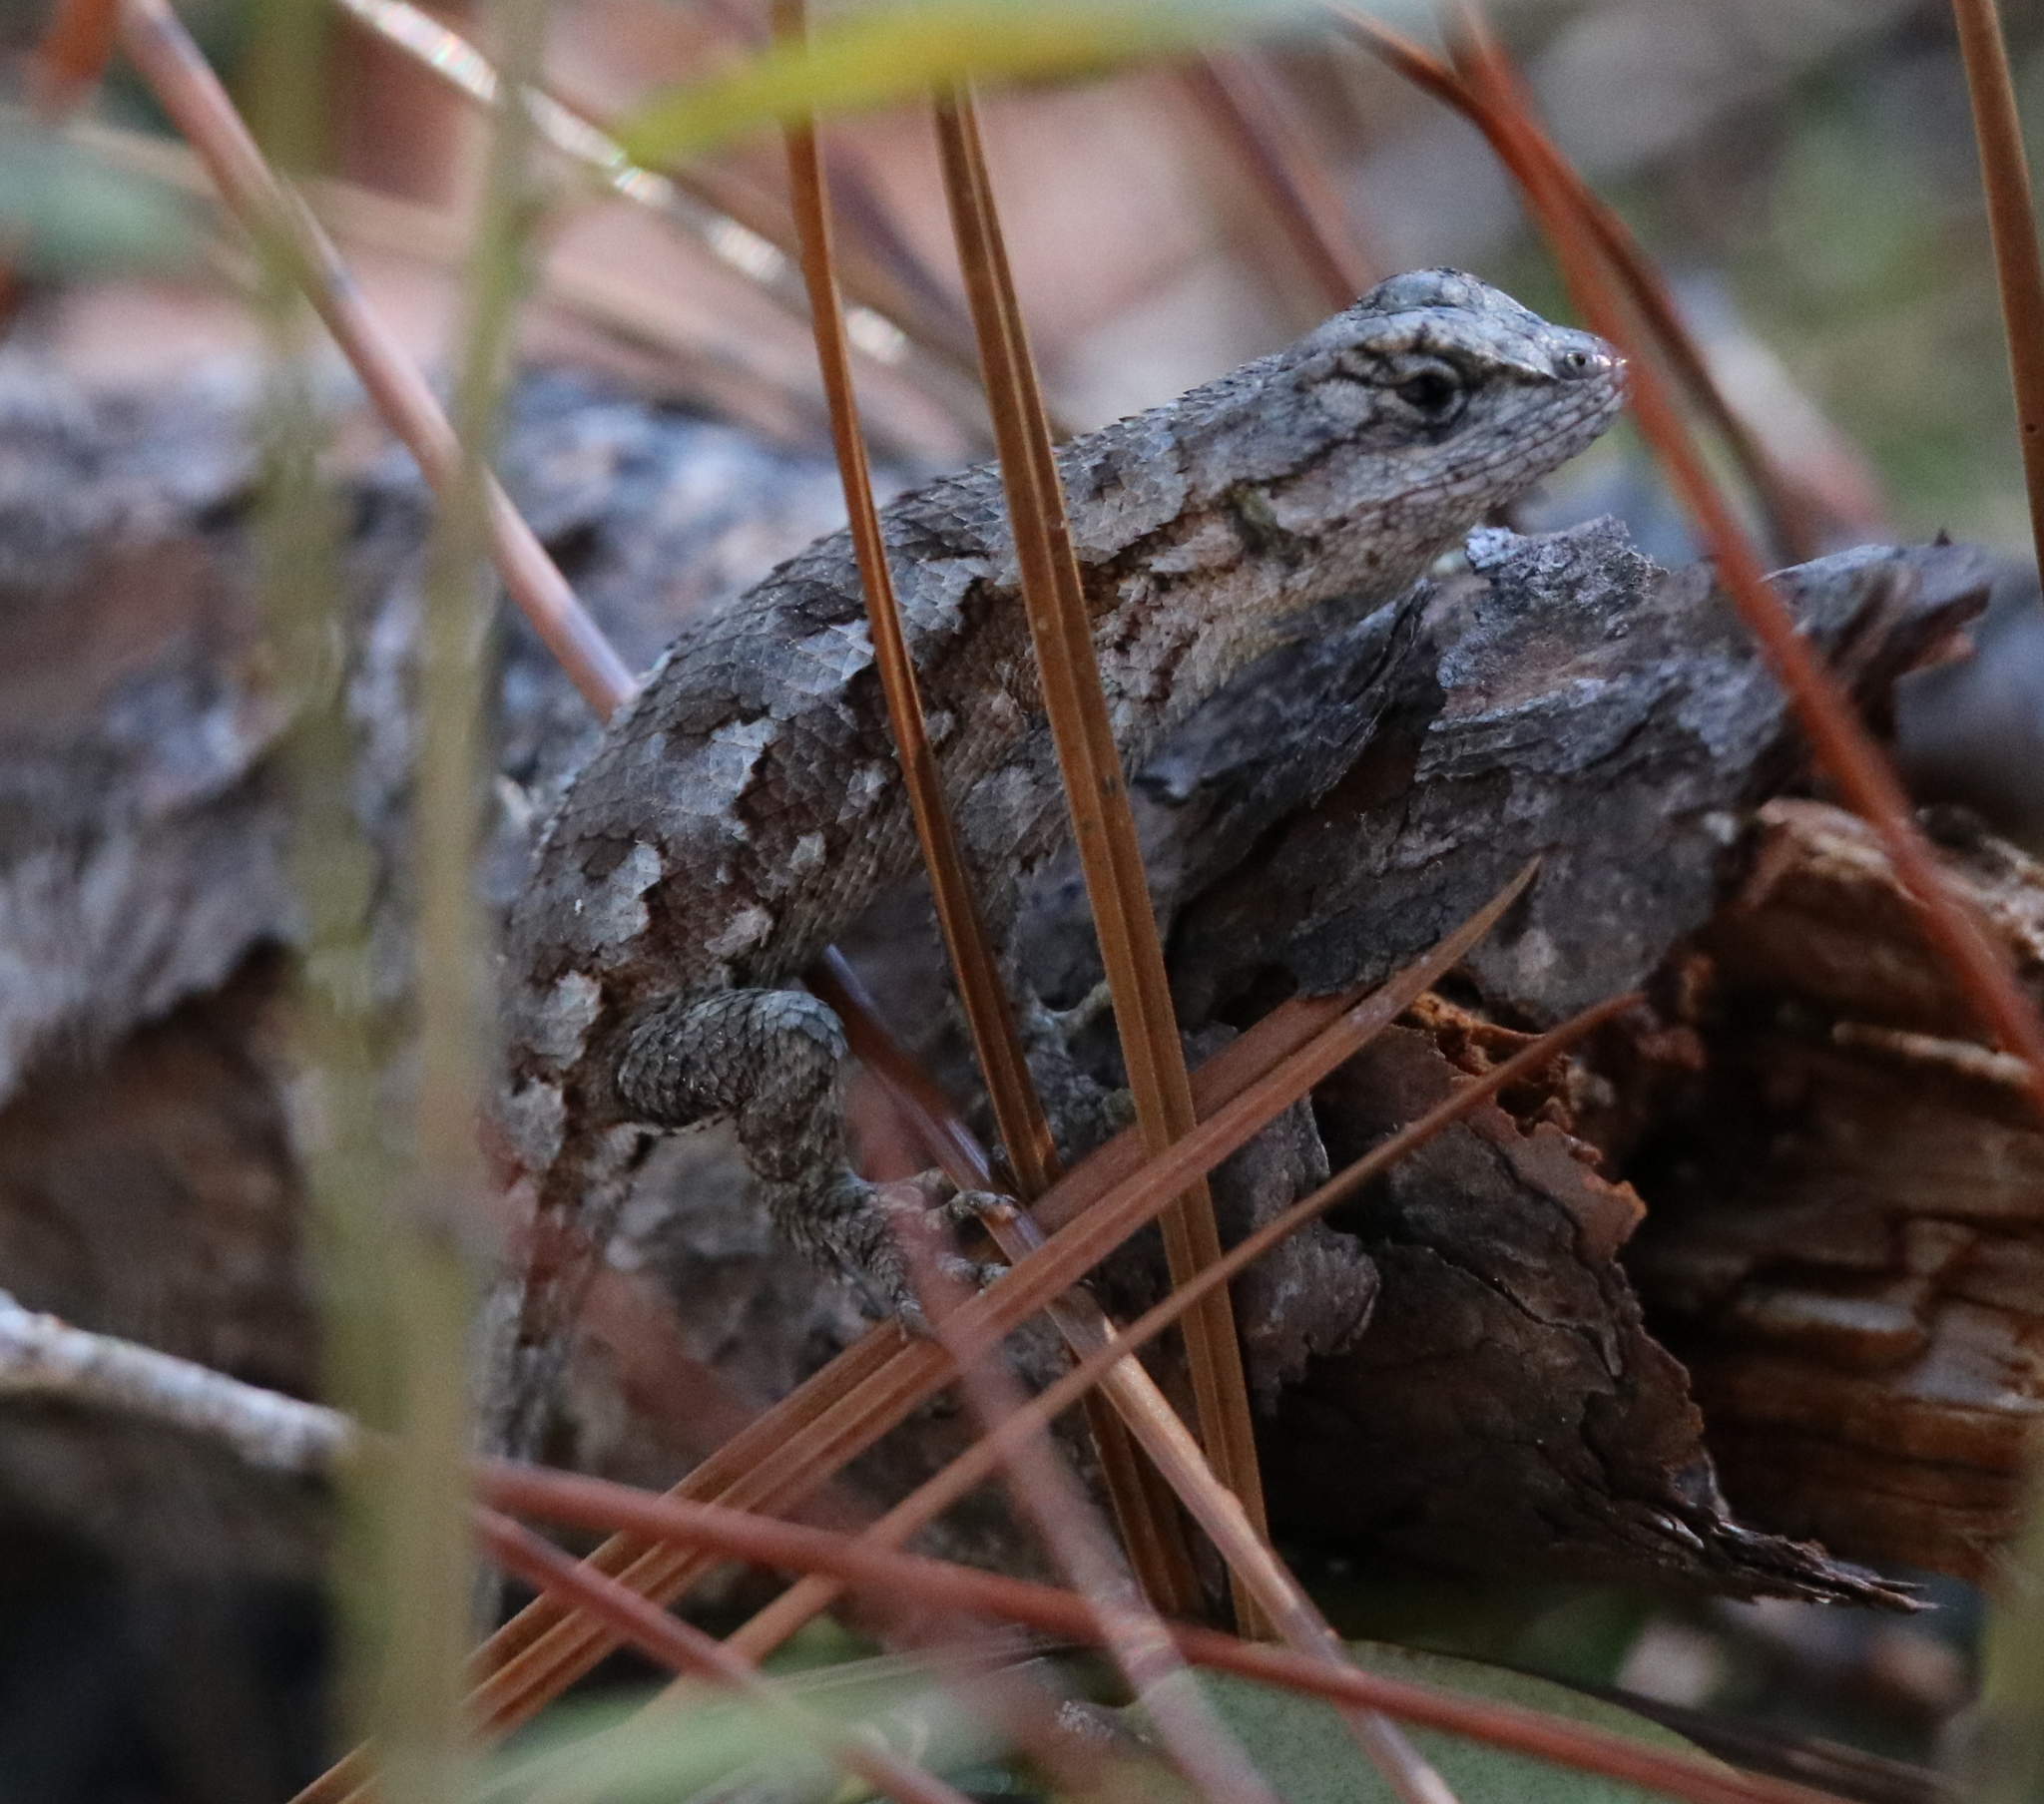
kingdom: Animalia
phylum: Chordata
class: Squamata
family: Phrynosomatidae
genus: Sceloporus
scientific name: Sceloporus undulatus
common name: Eastern fence lizard
